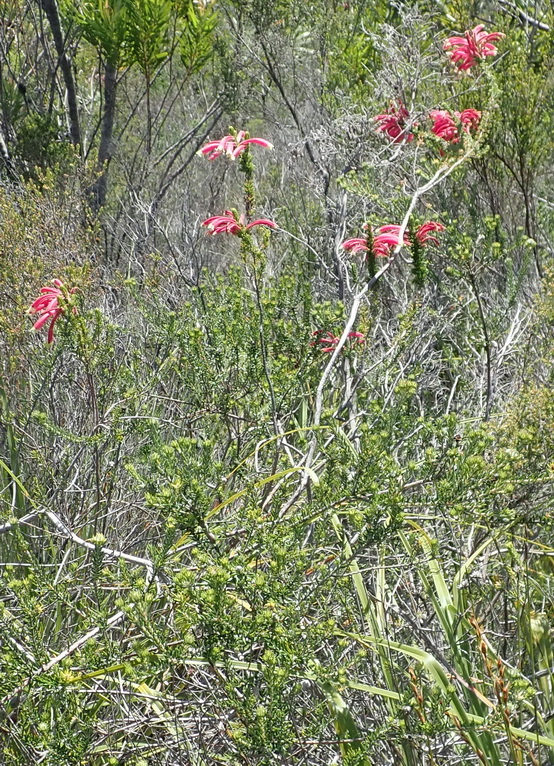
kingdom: Plantae
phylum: Tracheophyta
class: Magnoliopsida
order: Ericales
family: Ericaceae
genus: Erica
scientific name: Erica densifolia
